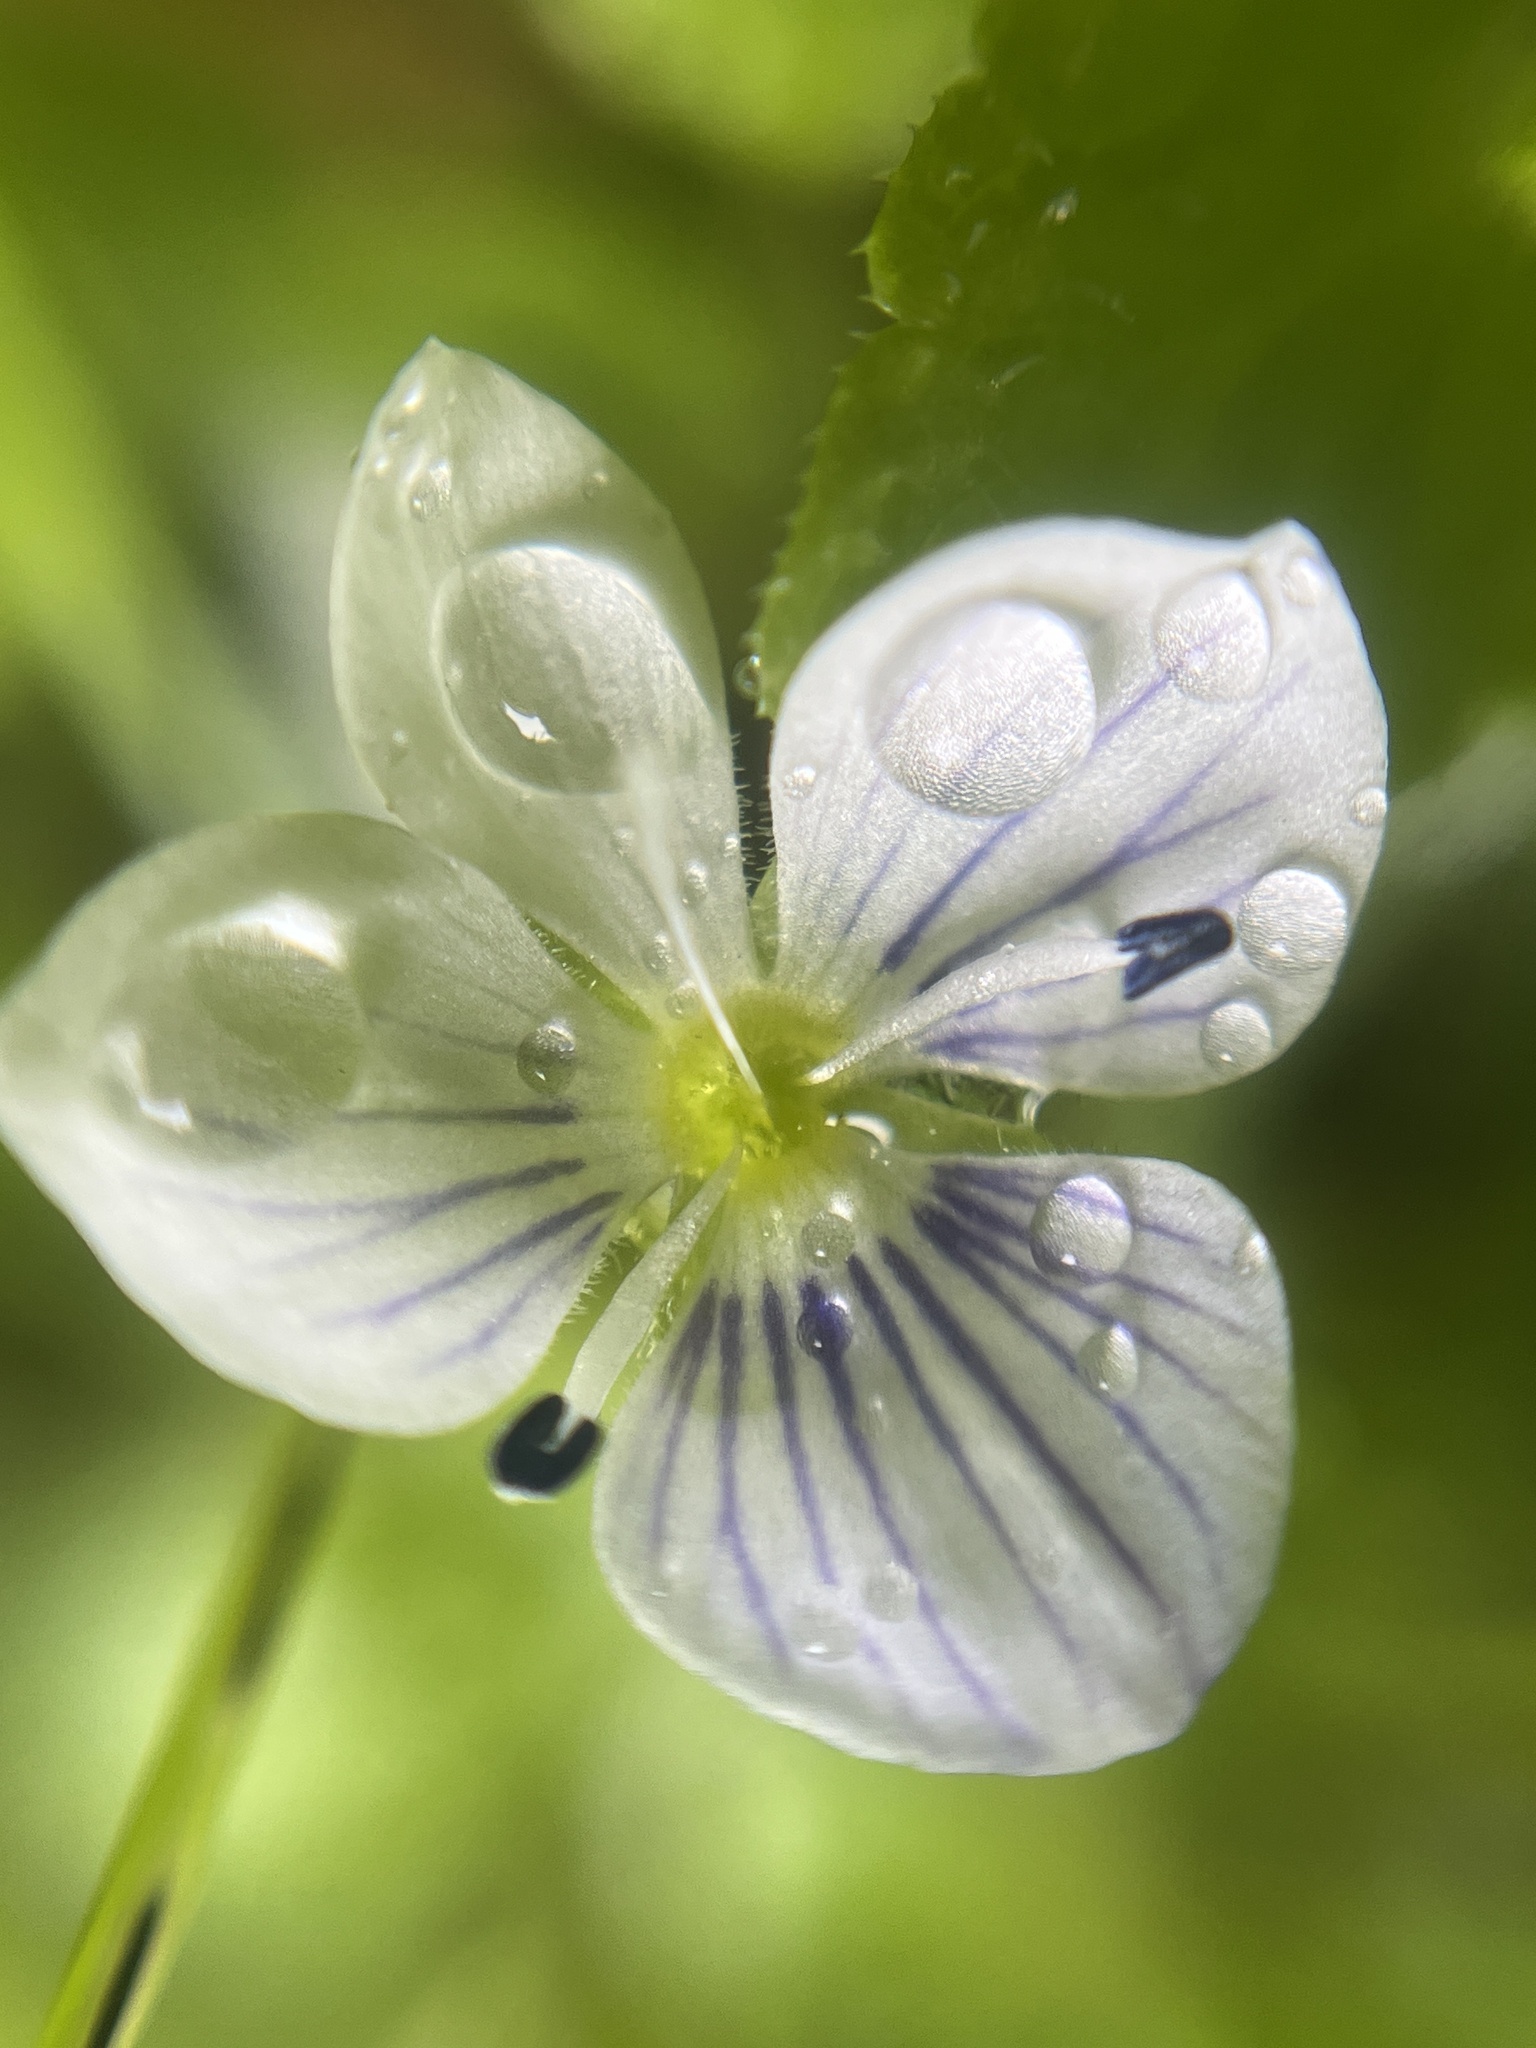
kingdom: Plantae
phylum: Tracheophyta
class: Magnoliopsida
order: Lamiales
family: Plantaginaceae
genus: Veronica
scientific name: Veronica filiformis
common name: Slender speedwell
